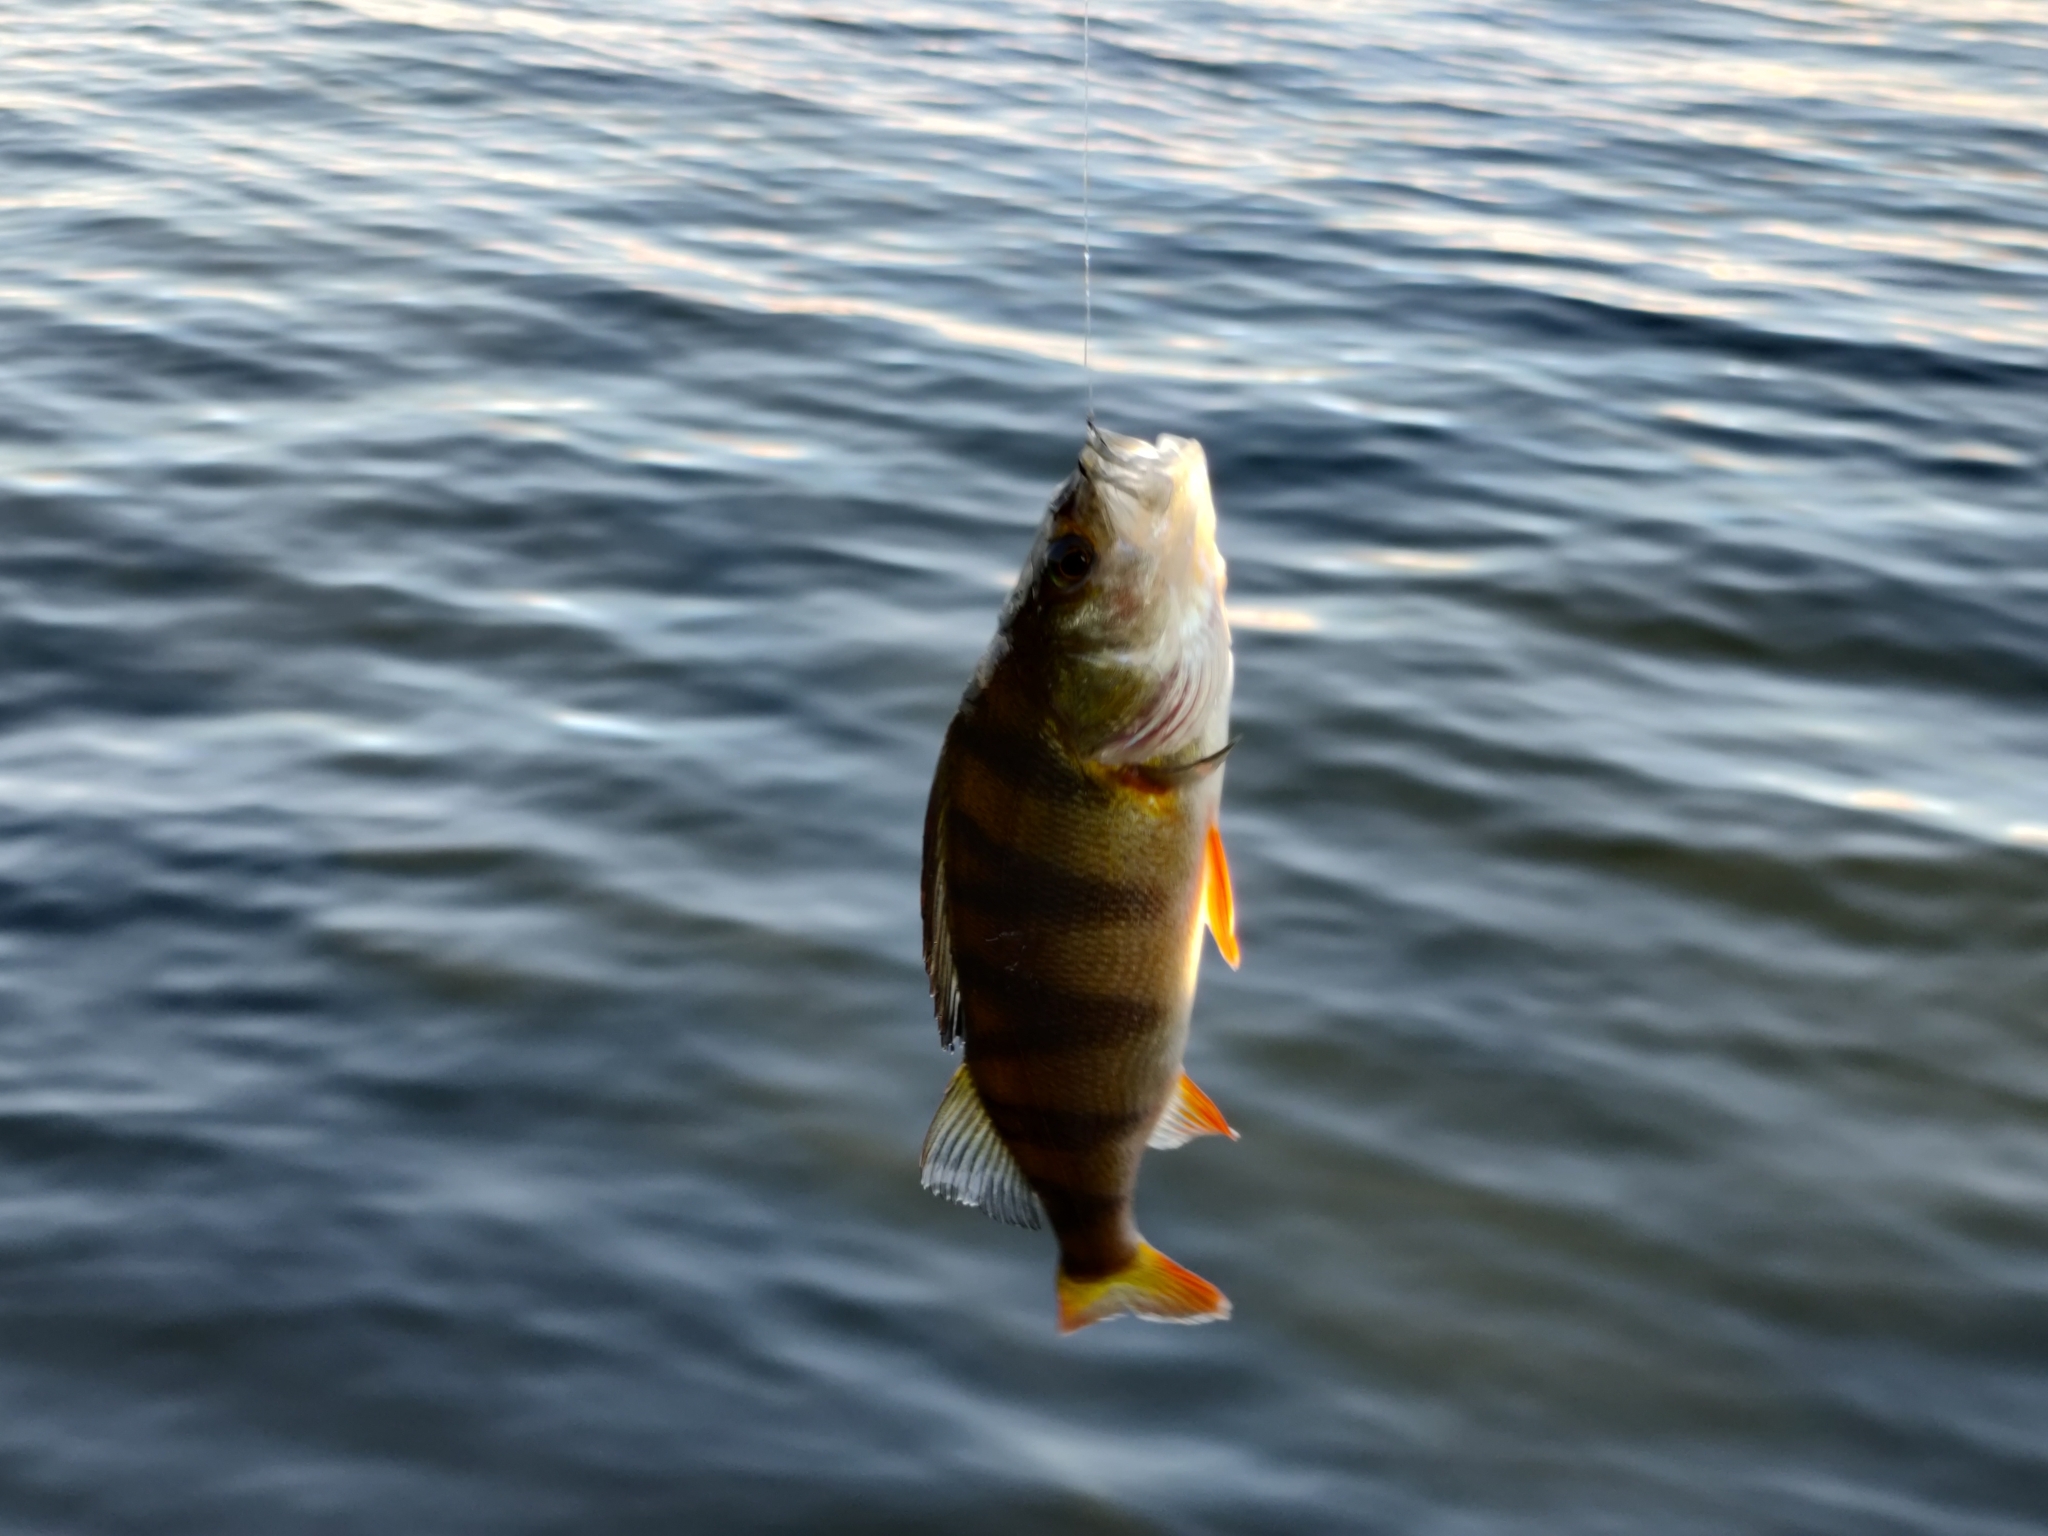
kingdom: Animalia
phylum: Chordata
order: Perciformes
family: Percidae
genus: Perca
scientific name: Perca fluviatilis
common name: Perch
